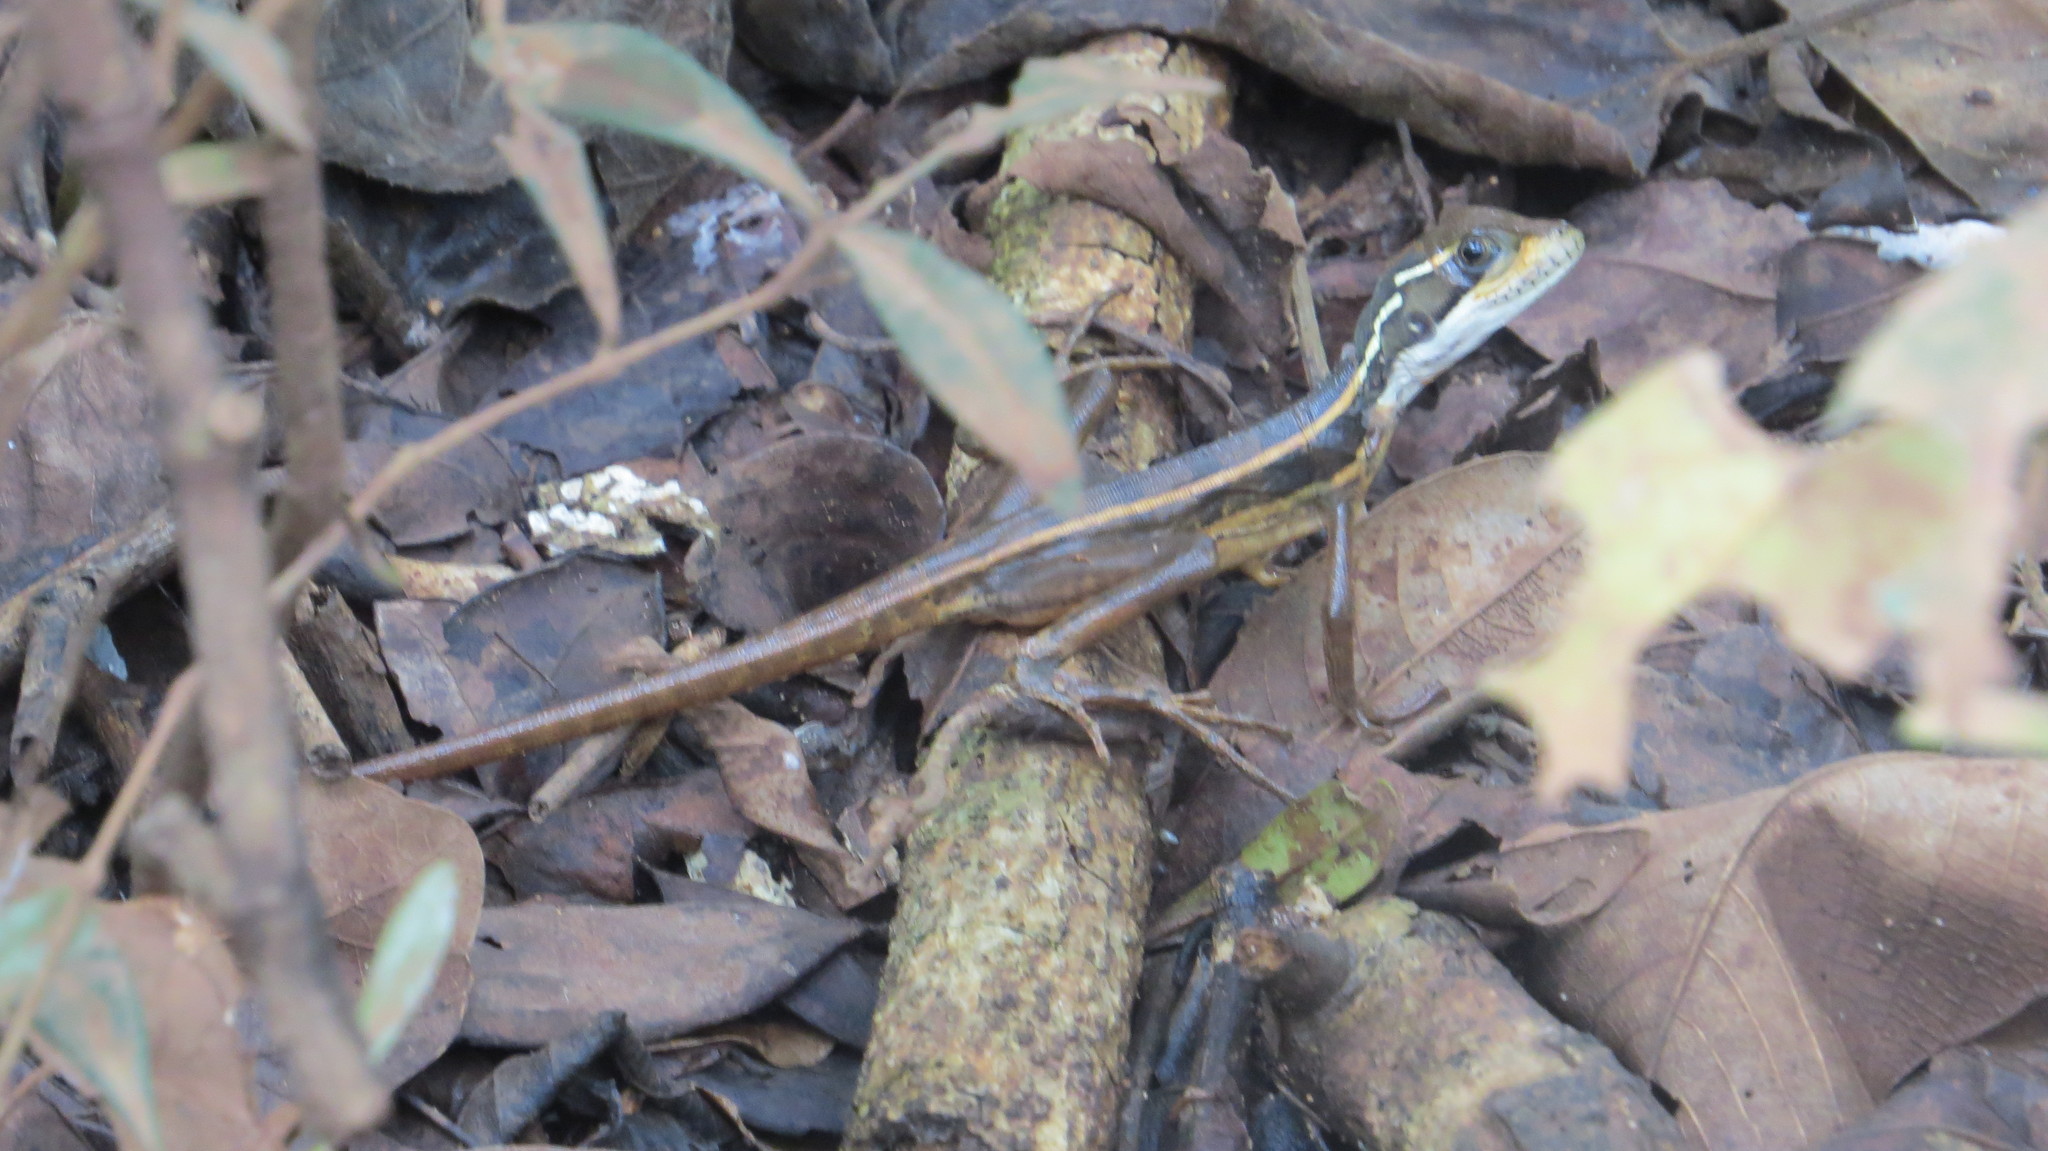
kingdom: Animalia
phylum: Chordata
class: Squamata
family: Corytophanidae
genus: Basiliscus
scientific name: Basiliscus vittatus
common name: Brown basilisk
